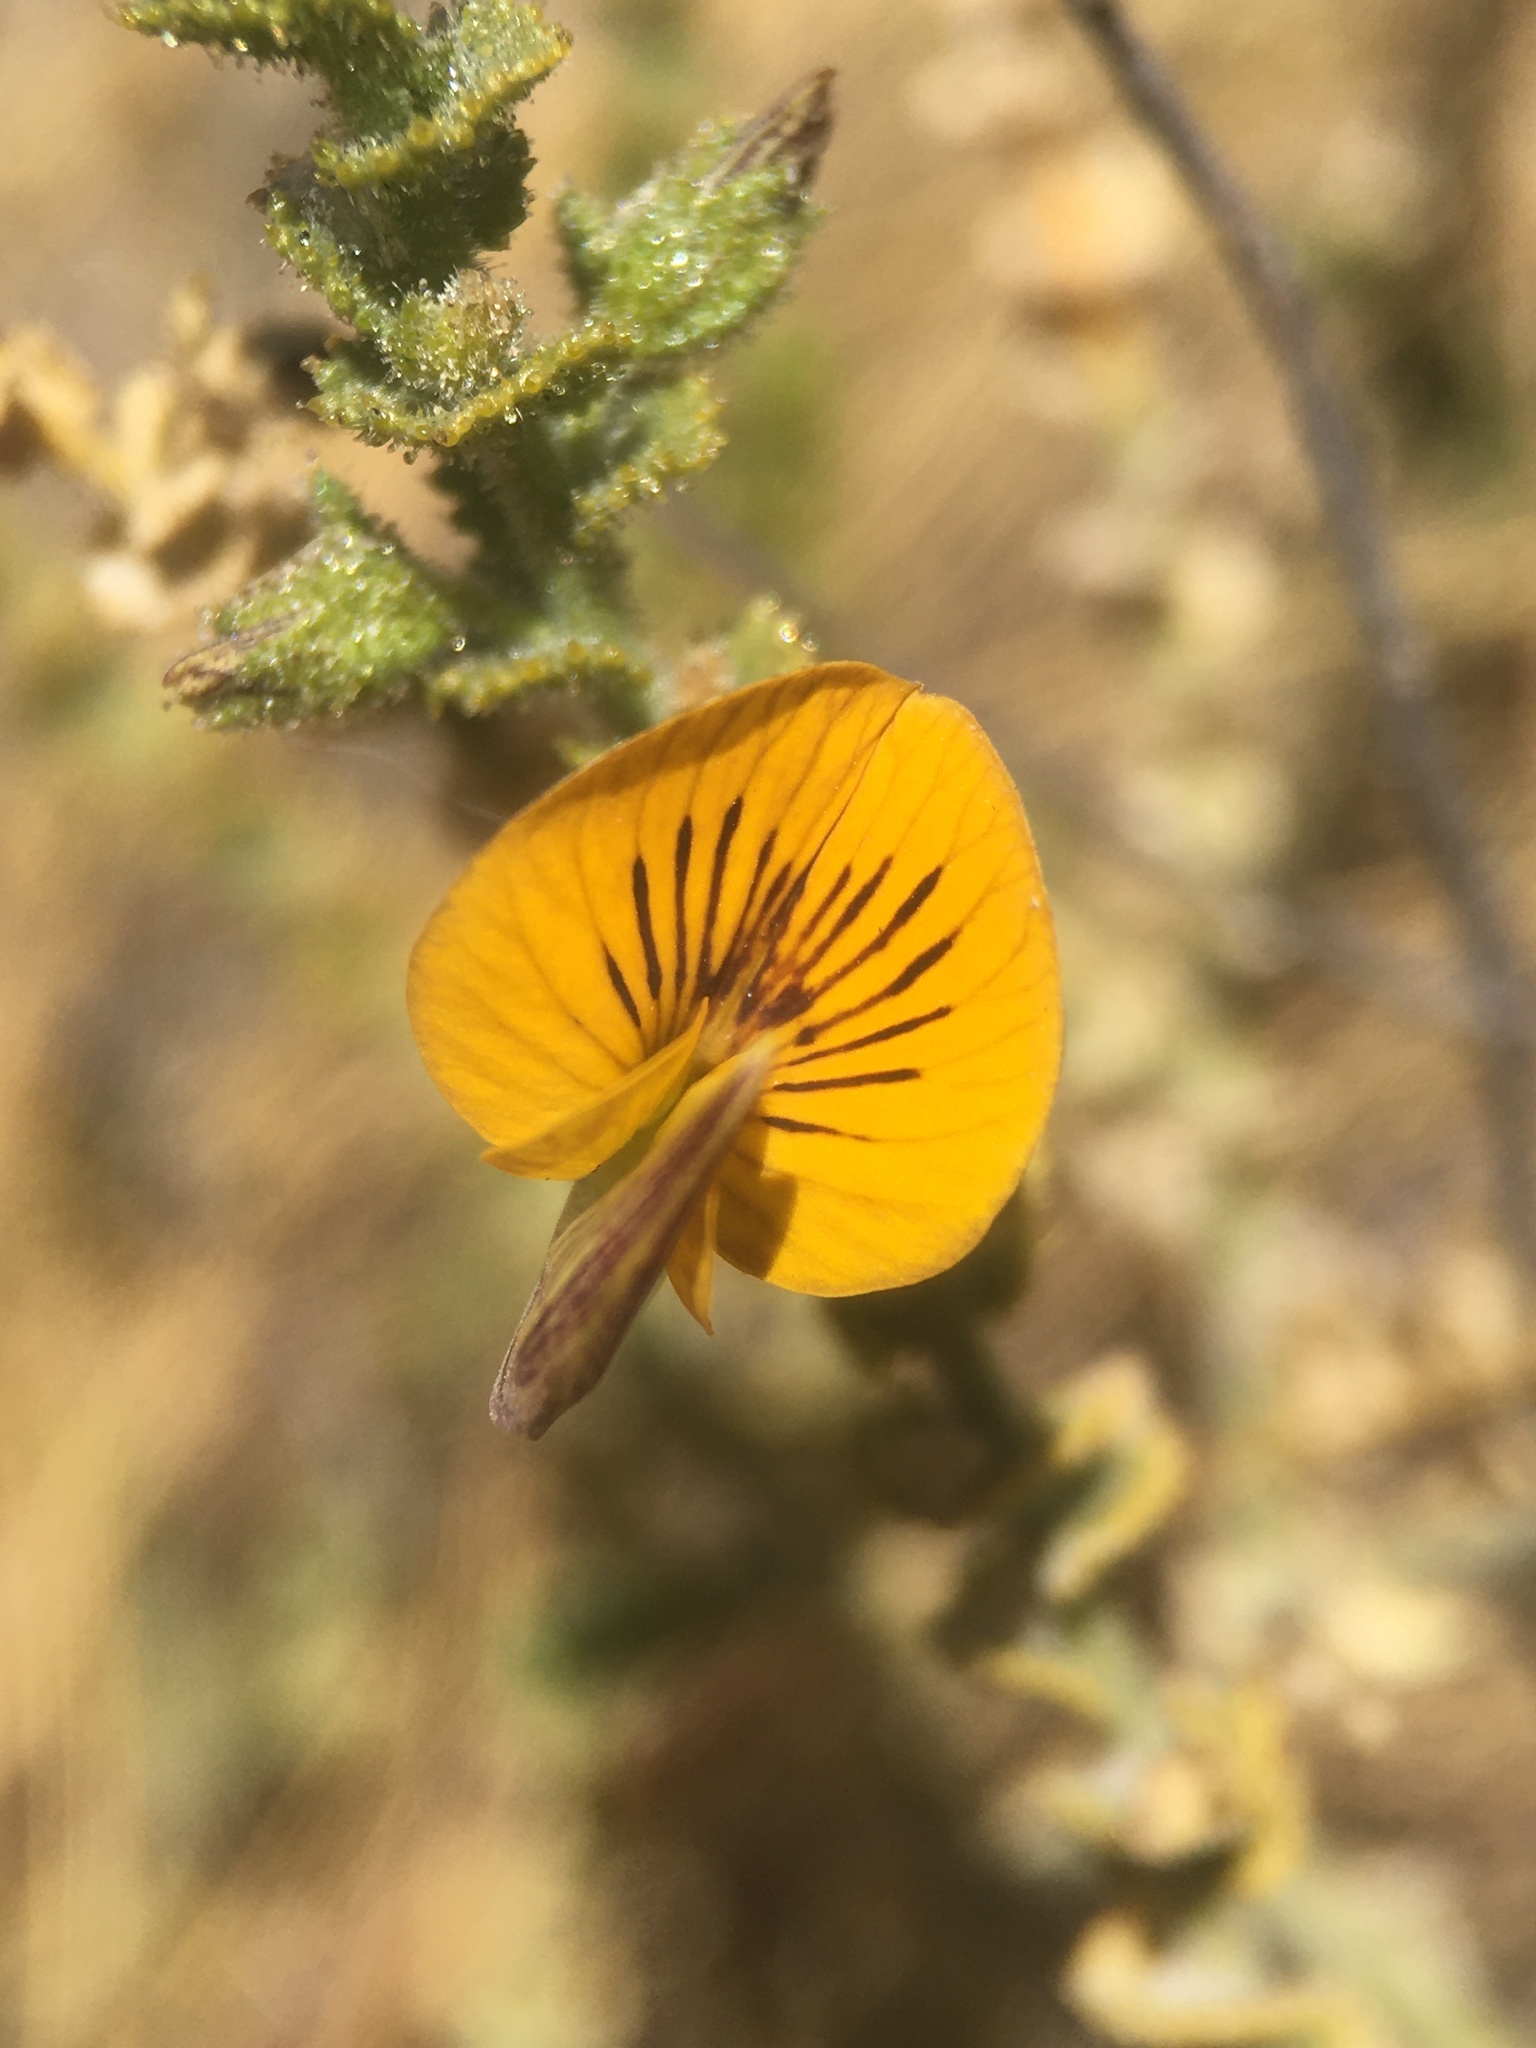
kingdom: Plantae
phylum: Tracheophyta
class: Magnoliopsida
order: Fabales
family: Fabaceae
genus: Adesmia
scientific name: Adesmia atacamensis
